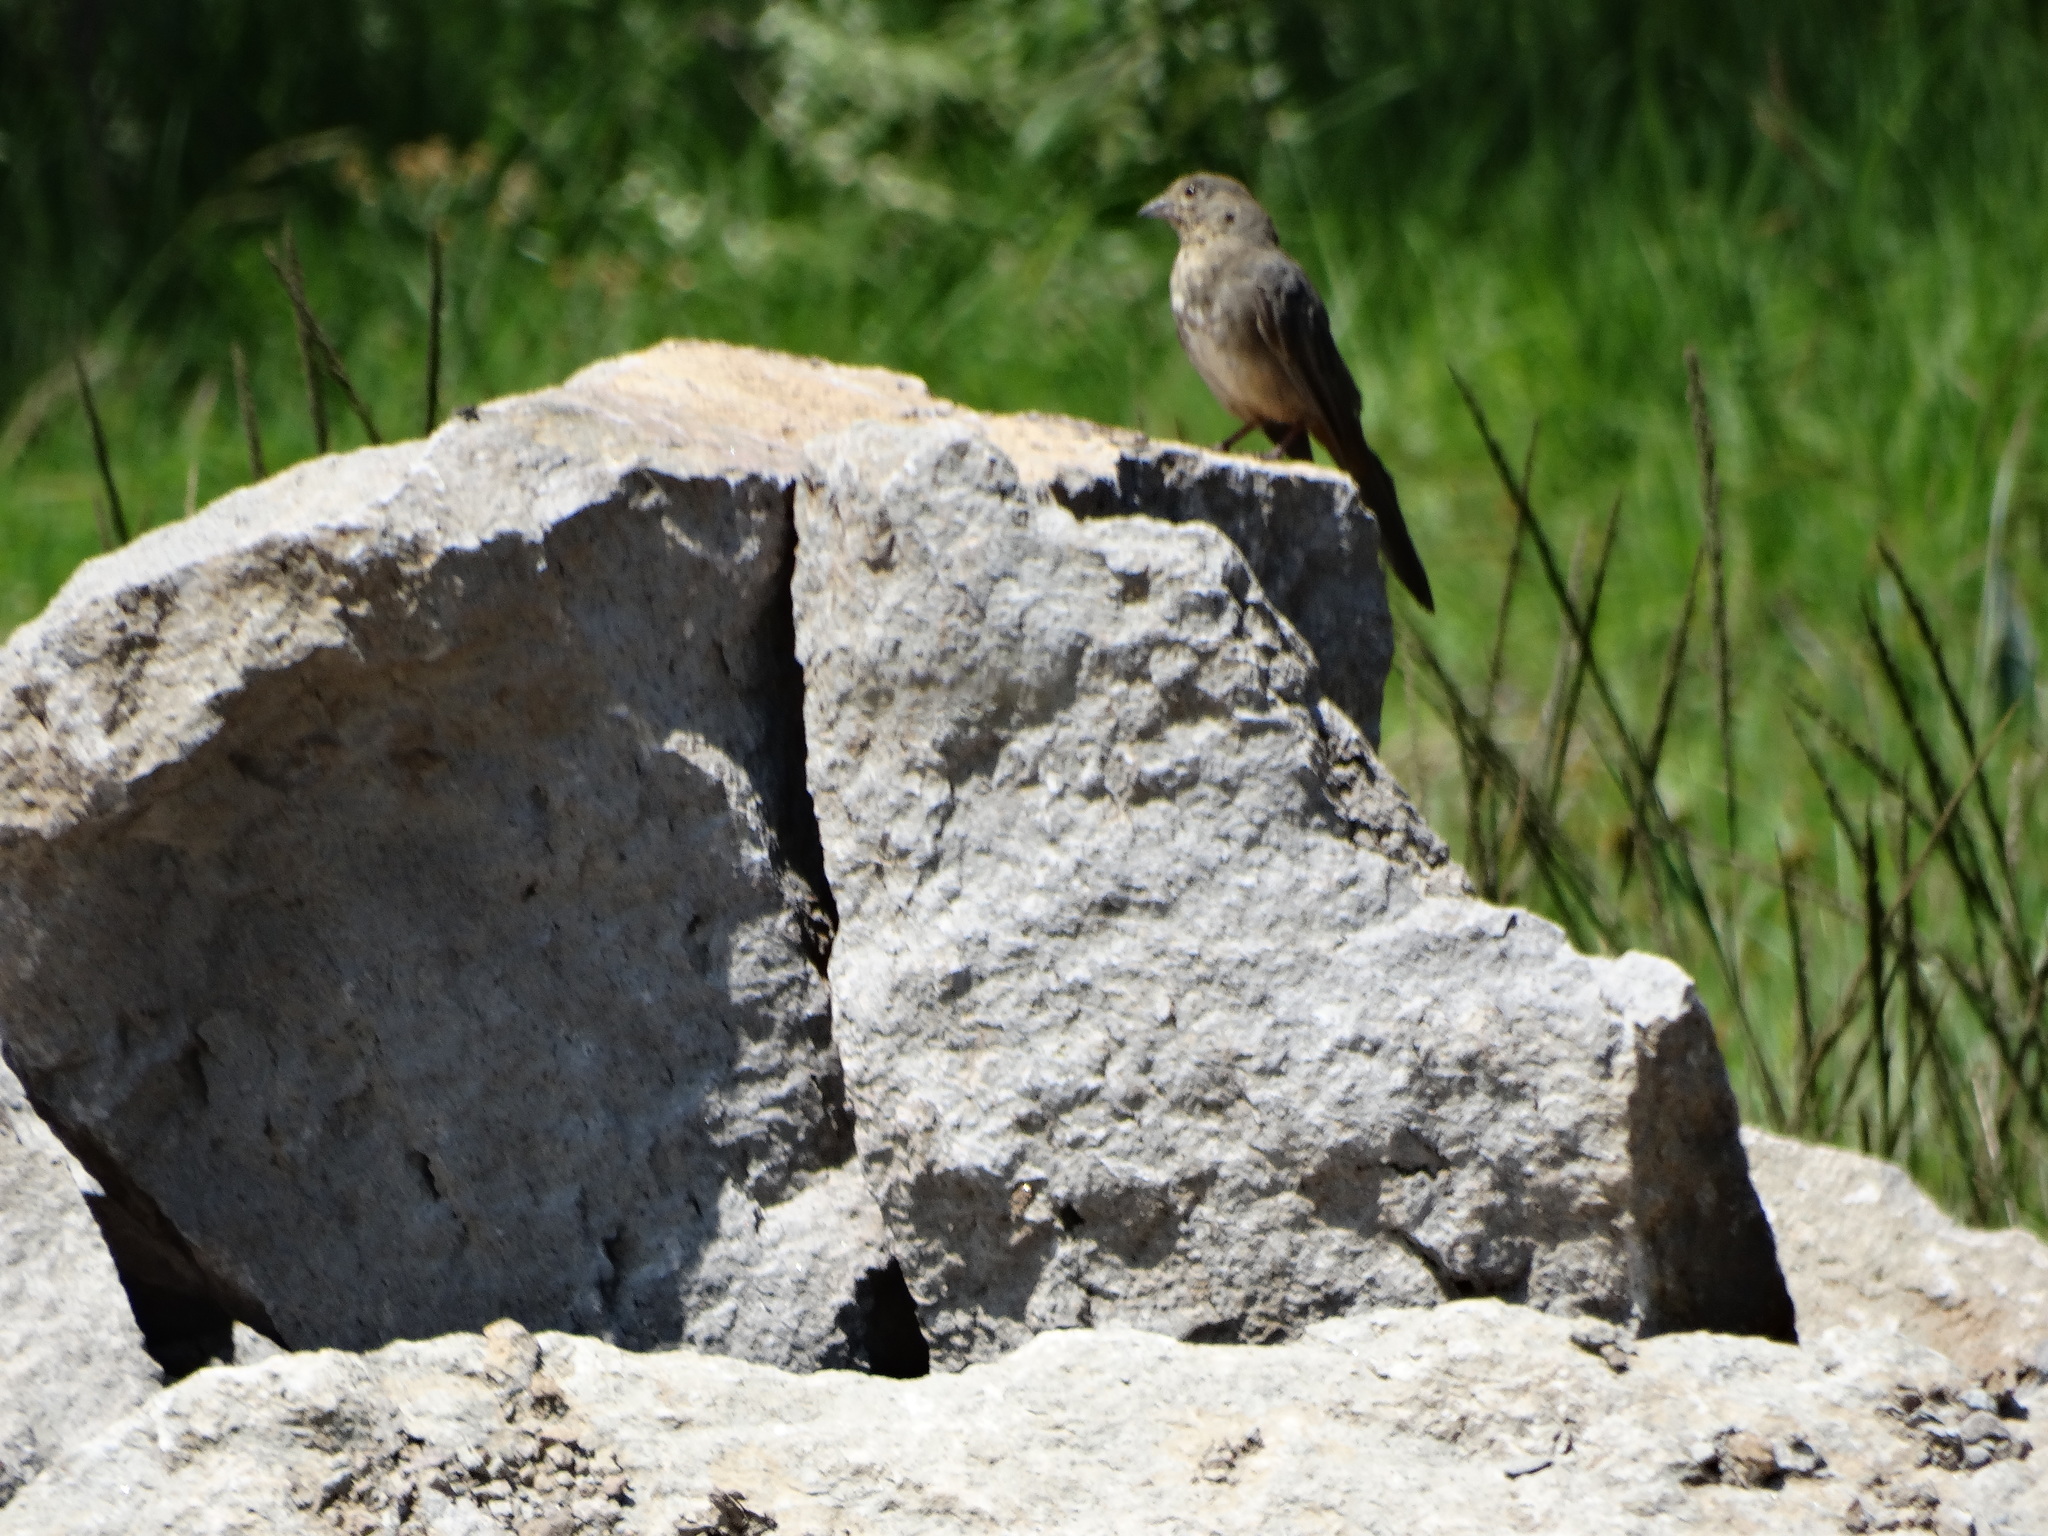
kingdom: Animalia
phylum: Chordata
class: Aves
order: Passeriformes
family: Passerellidae
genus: Melozone
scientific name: Melozone fusca
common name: Canyon towhee
